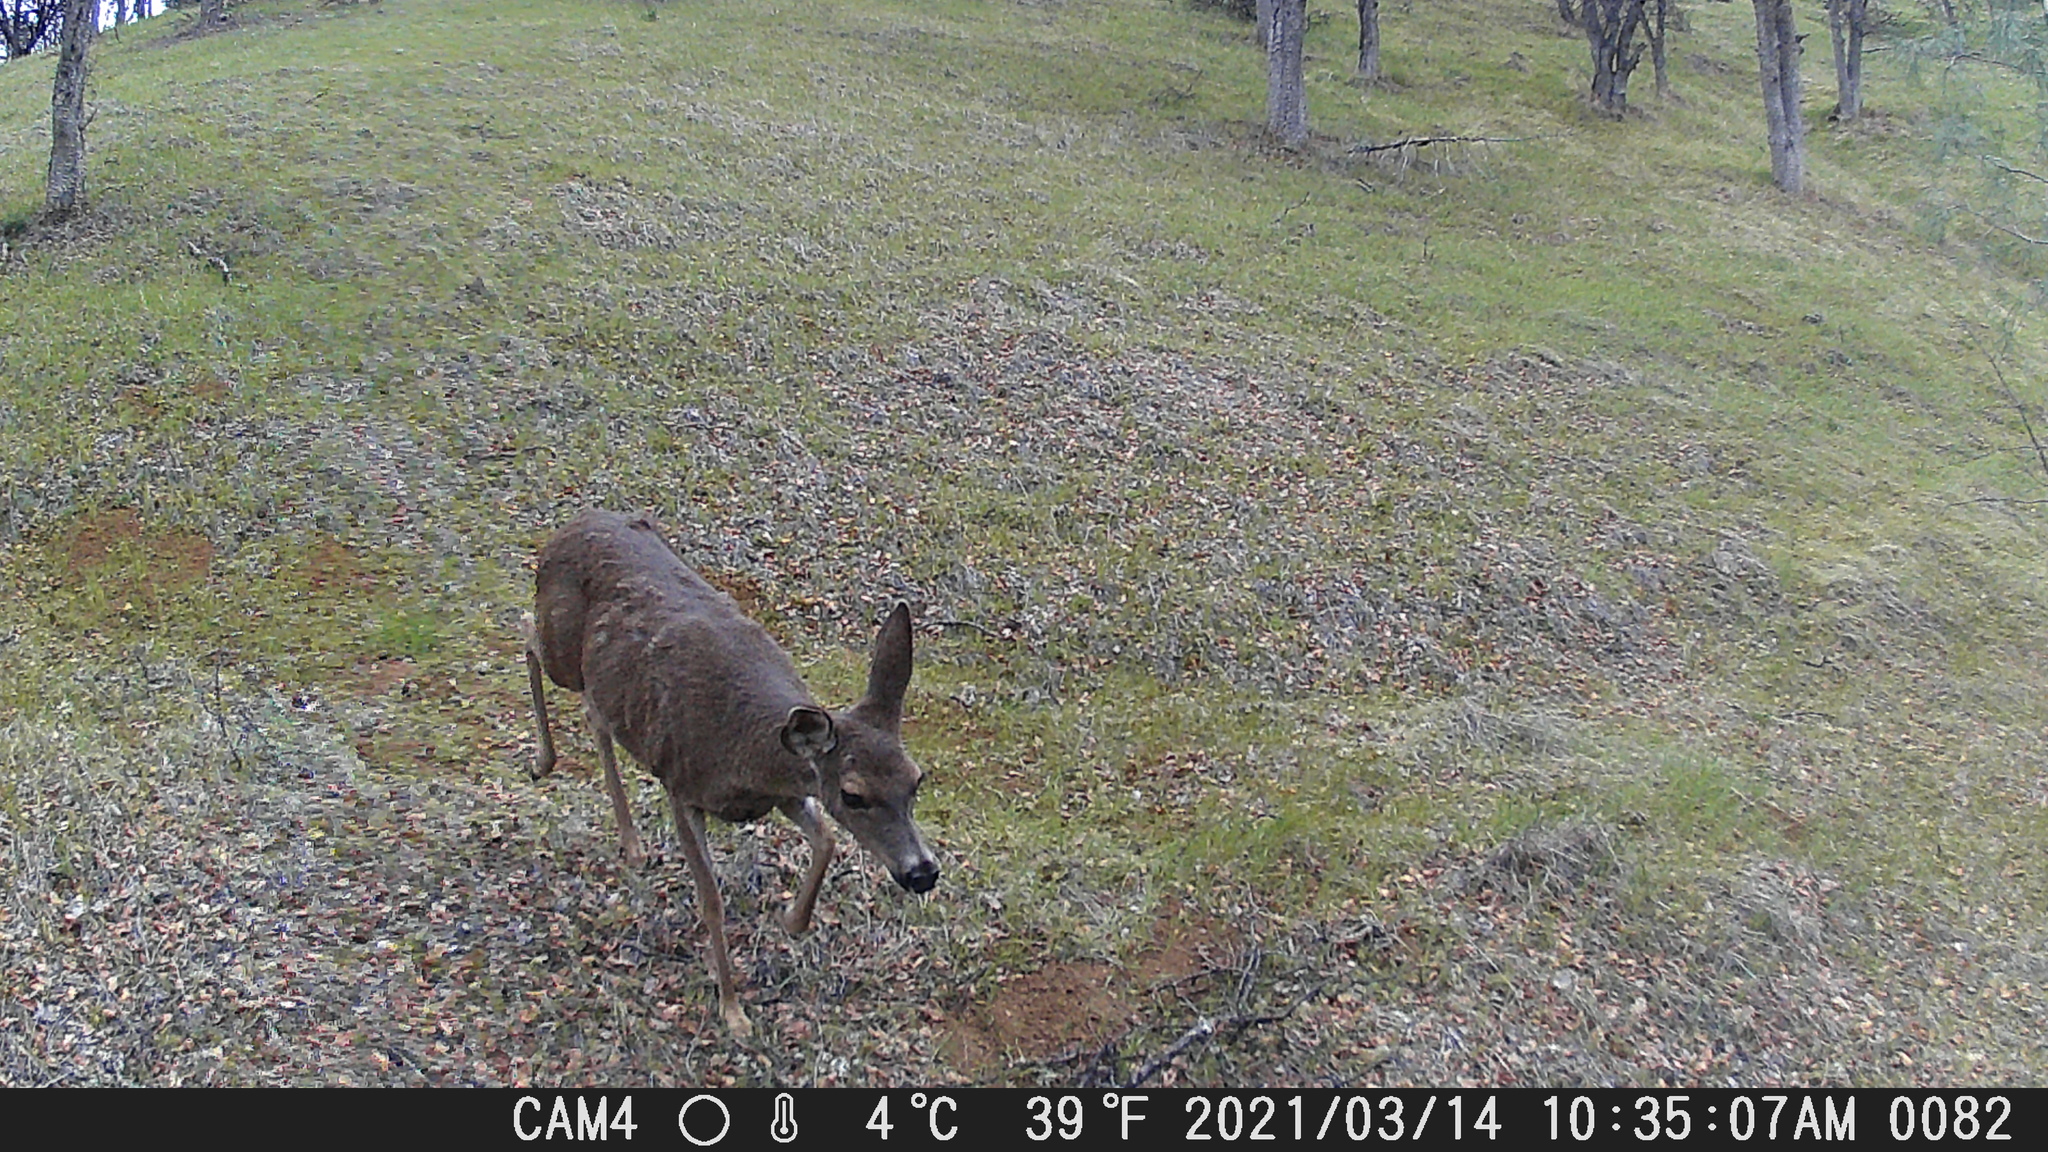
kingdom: Animalia
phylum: Chordata
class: Mammalia
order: Artiodactyla
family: Cervidae
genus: Odocoileus
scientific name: Odocoileus hemionus
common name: Mule deer
